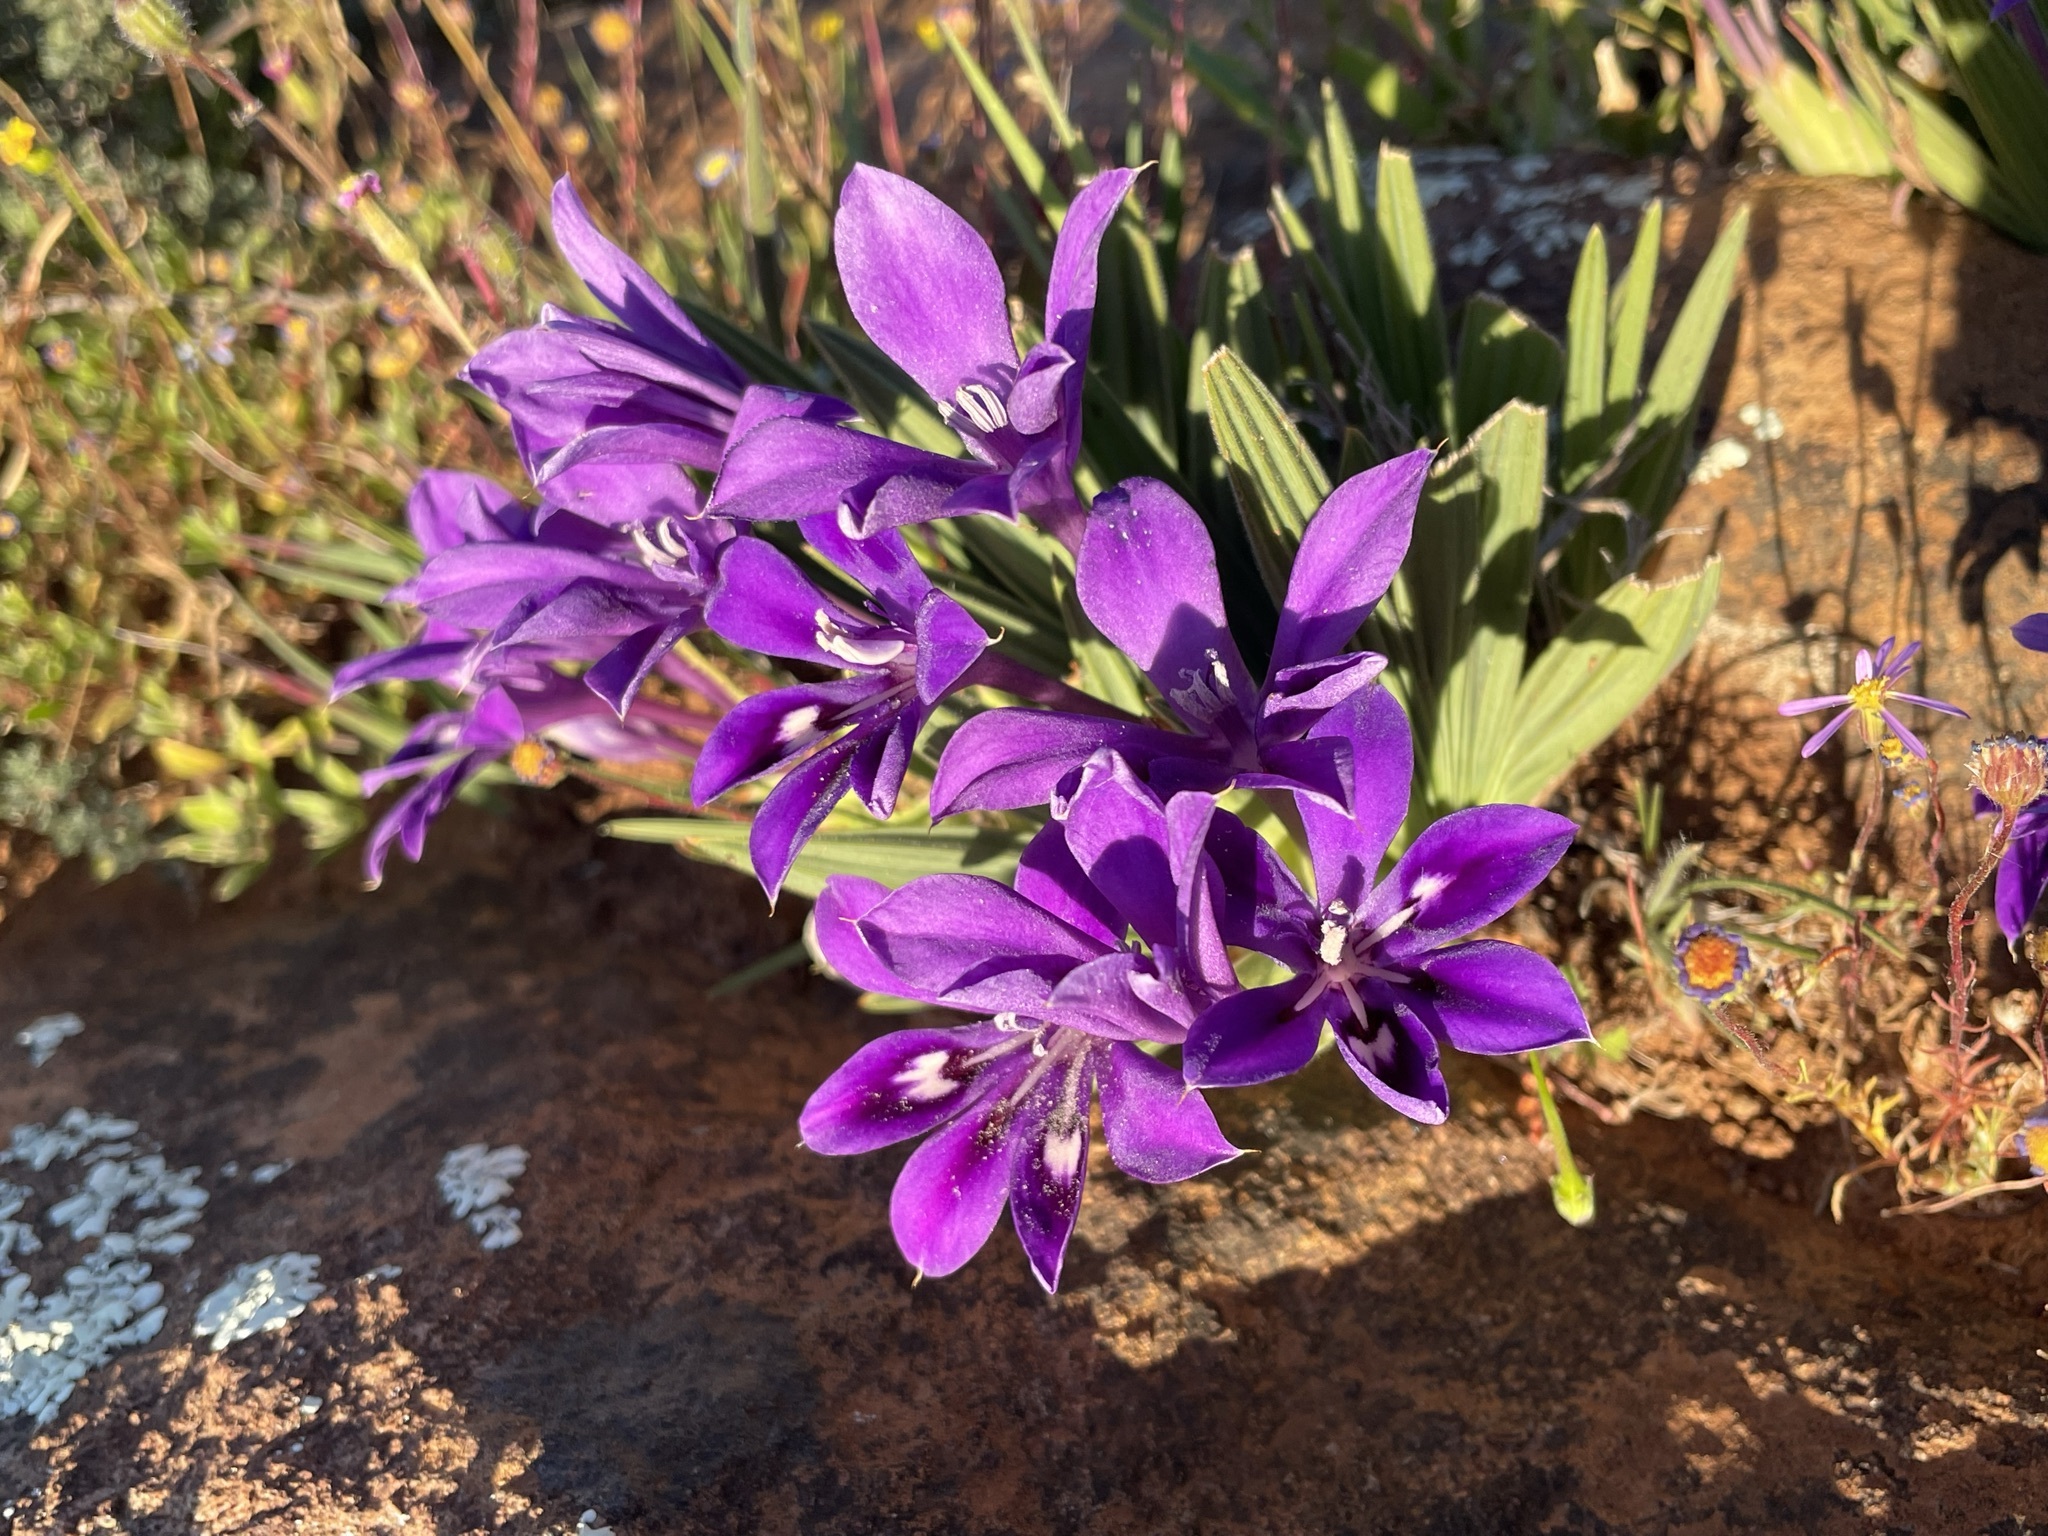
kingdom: Plantae
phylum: Tracheophyta
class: Liliopsida
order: Asparagales
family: Iridaceae
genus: Babiana
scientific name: Babiana framesii
